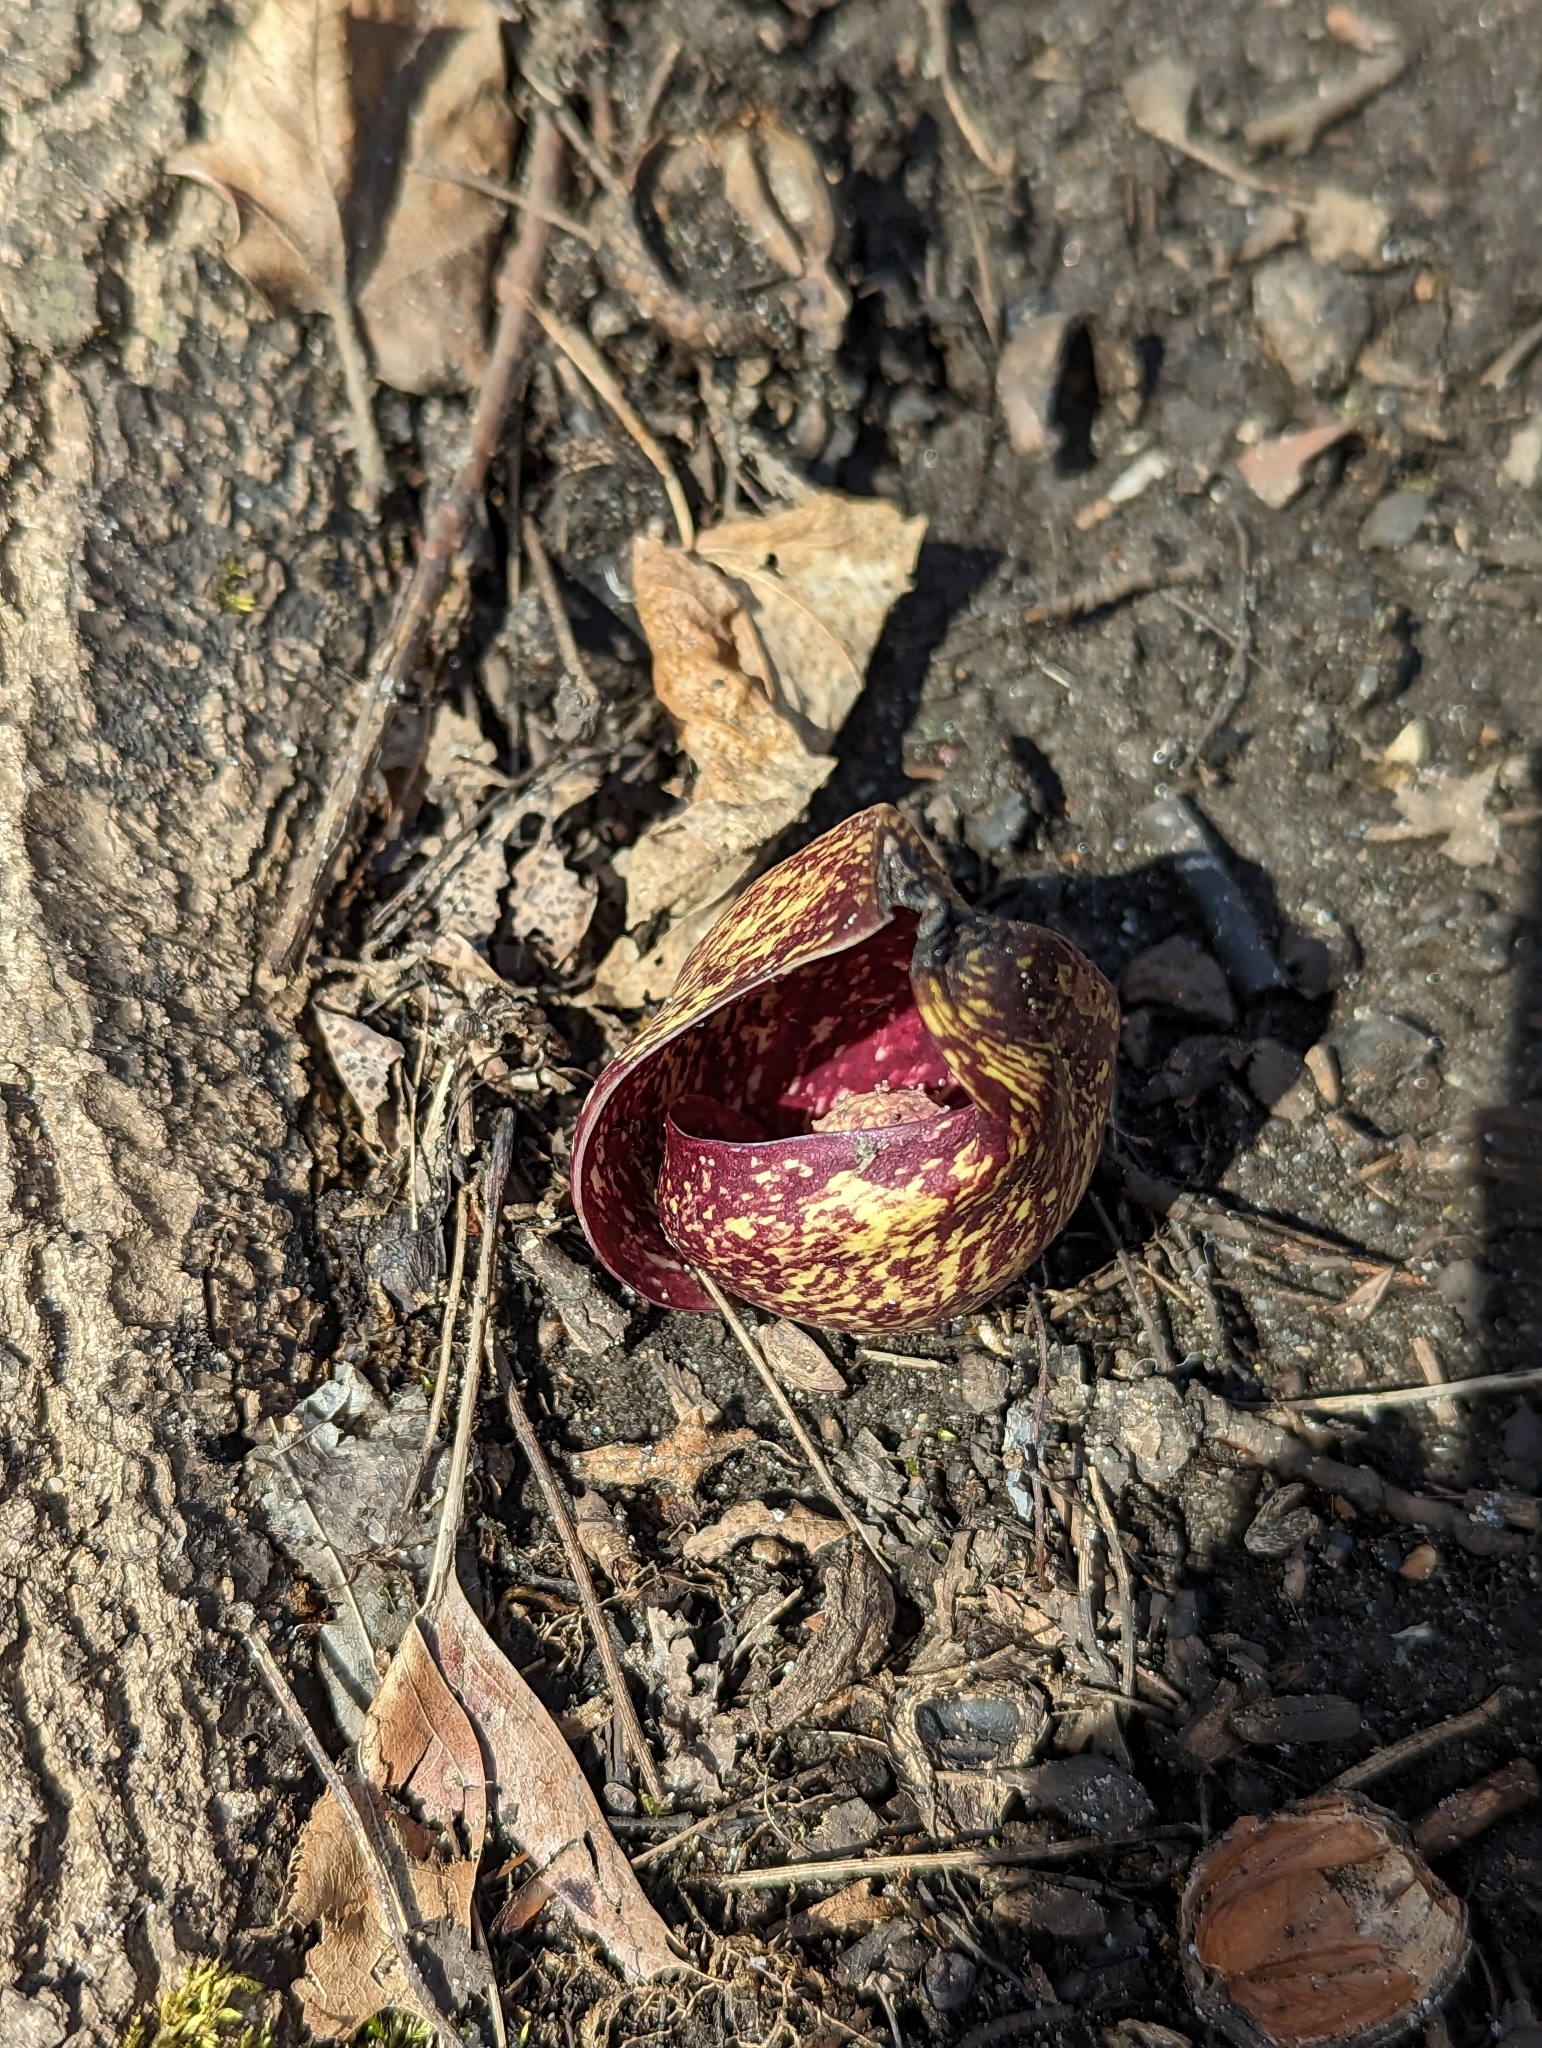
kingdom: Plantae
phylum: Tracheophyta
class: Liliopsida
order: Alismatales
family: Araceae
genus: Symplocarpus
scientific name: Symplocarpus foetidus
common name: Eastern skunk cabbage
